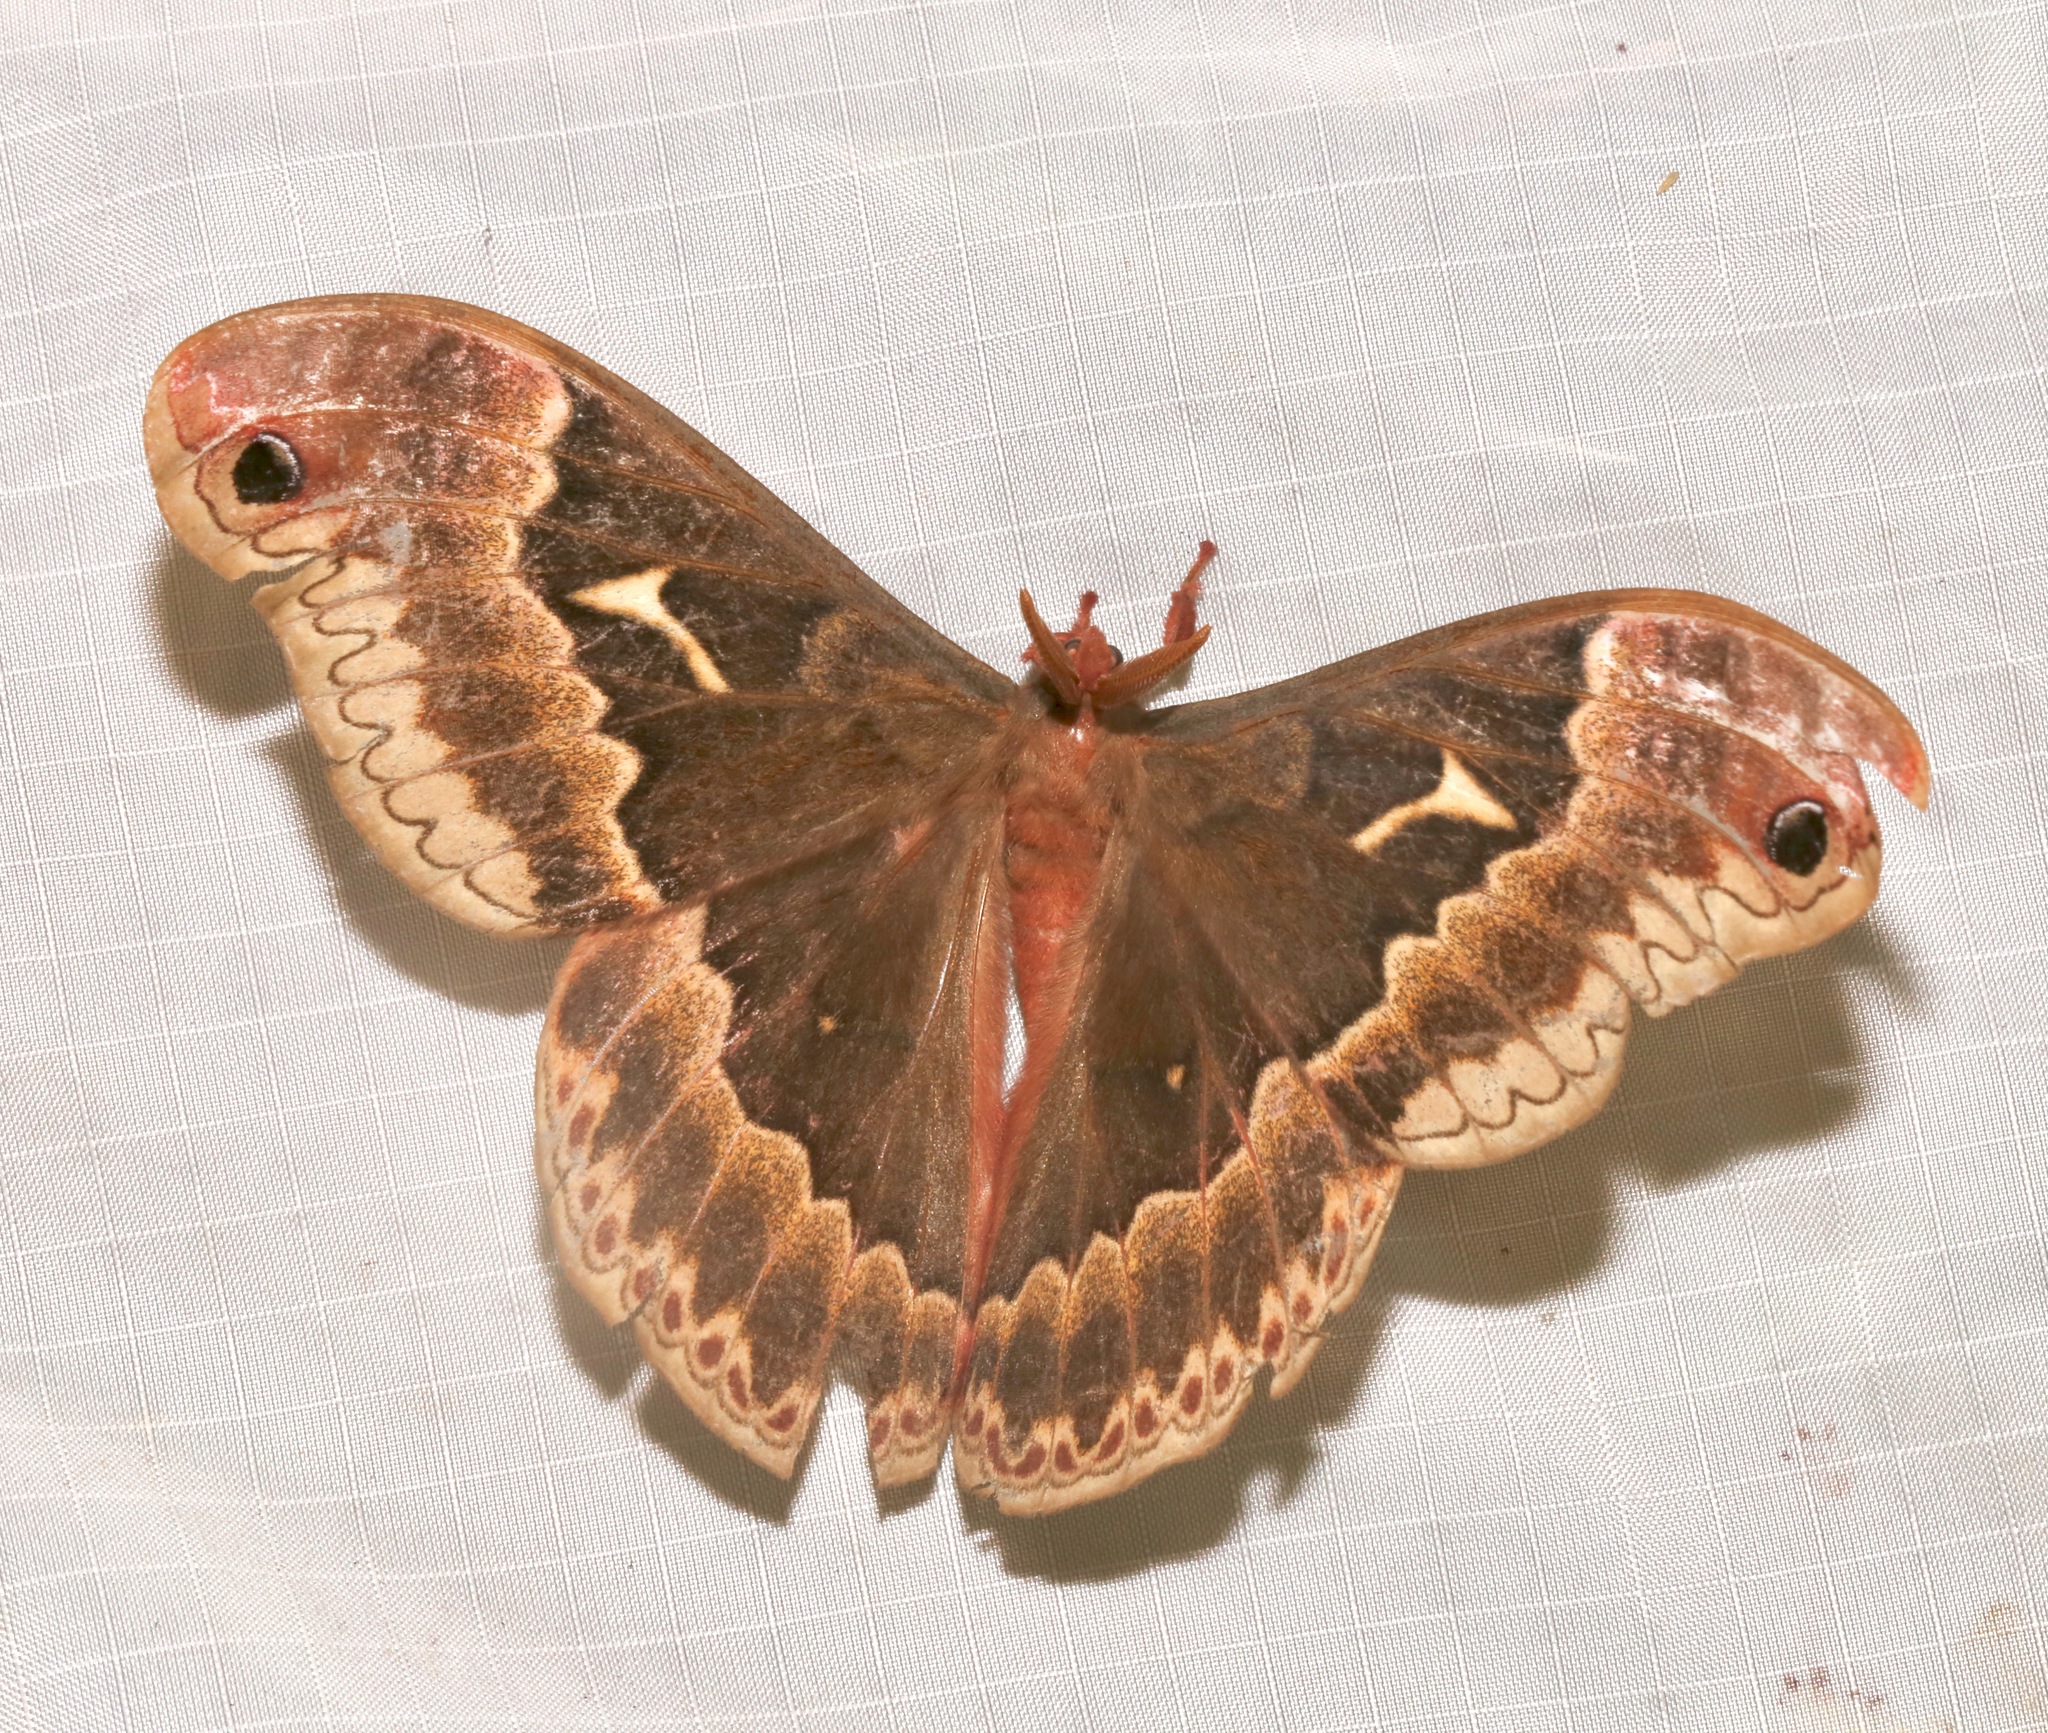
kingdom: Animalia
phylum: Arthropoda
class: Insecta
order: Lepidoptera
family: Saturniidae
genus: Callosamia
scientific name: Callosamia angulifera
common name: Tulip tree silkmoth
